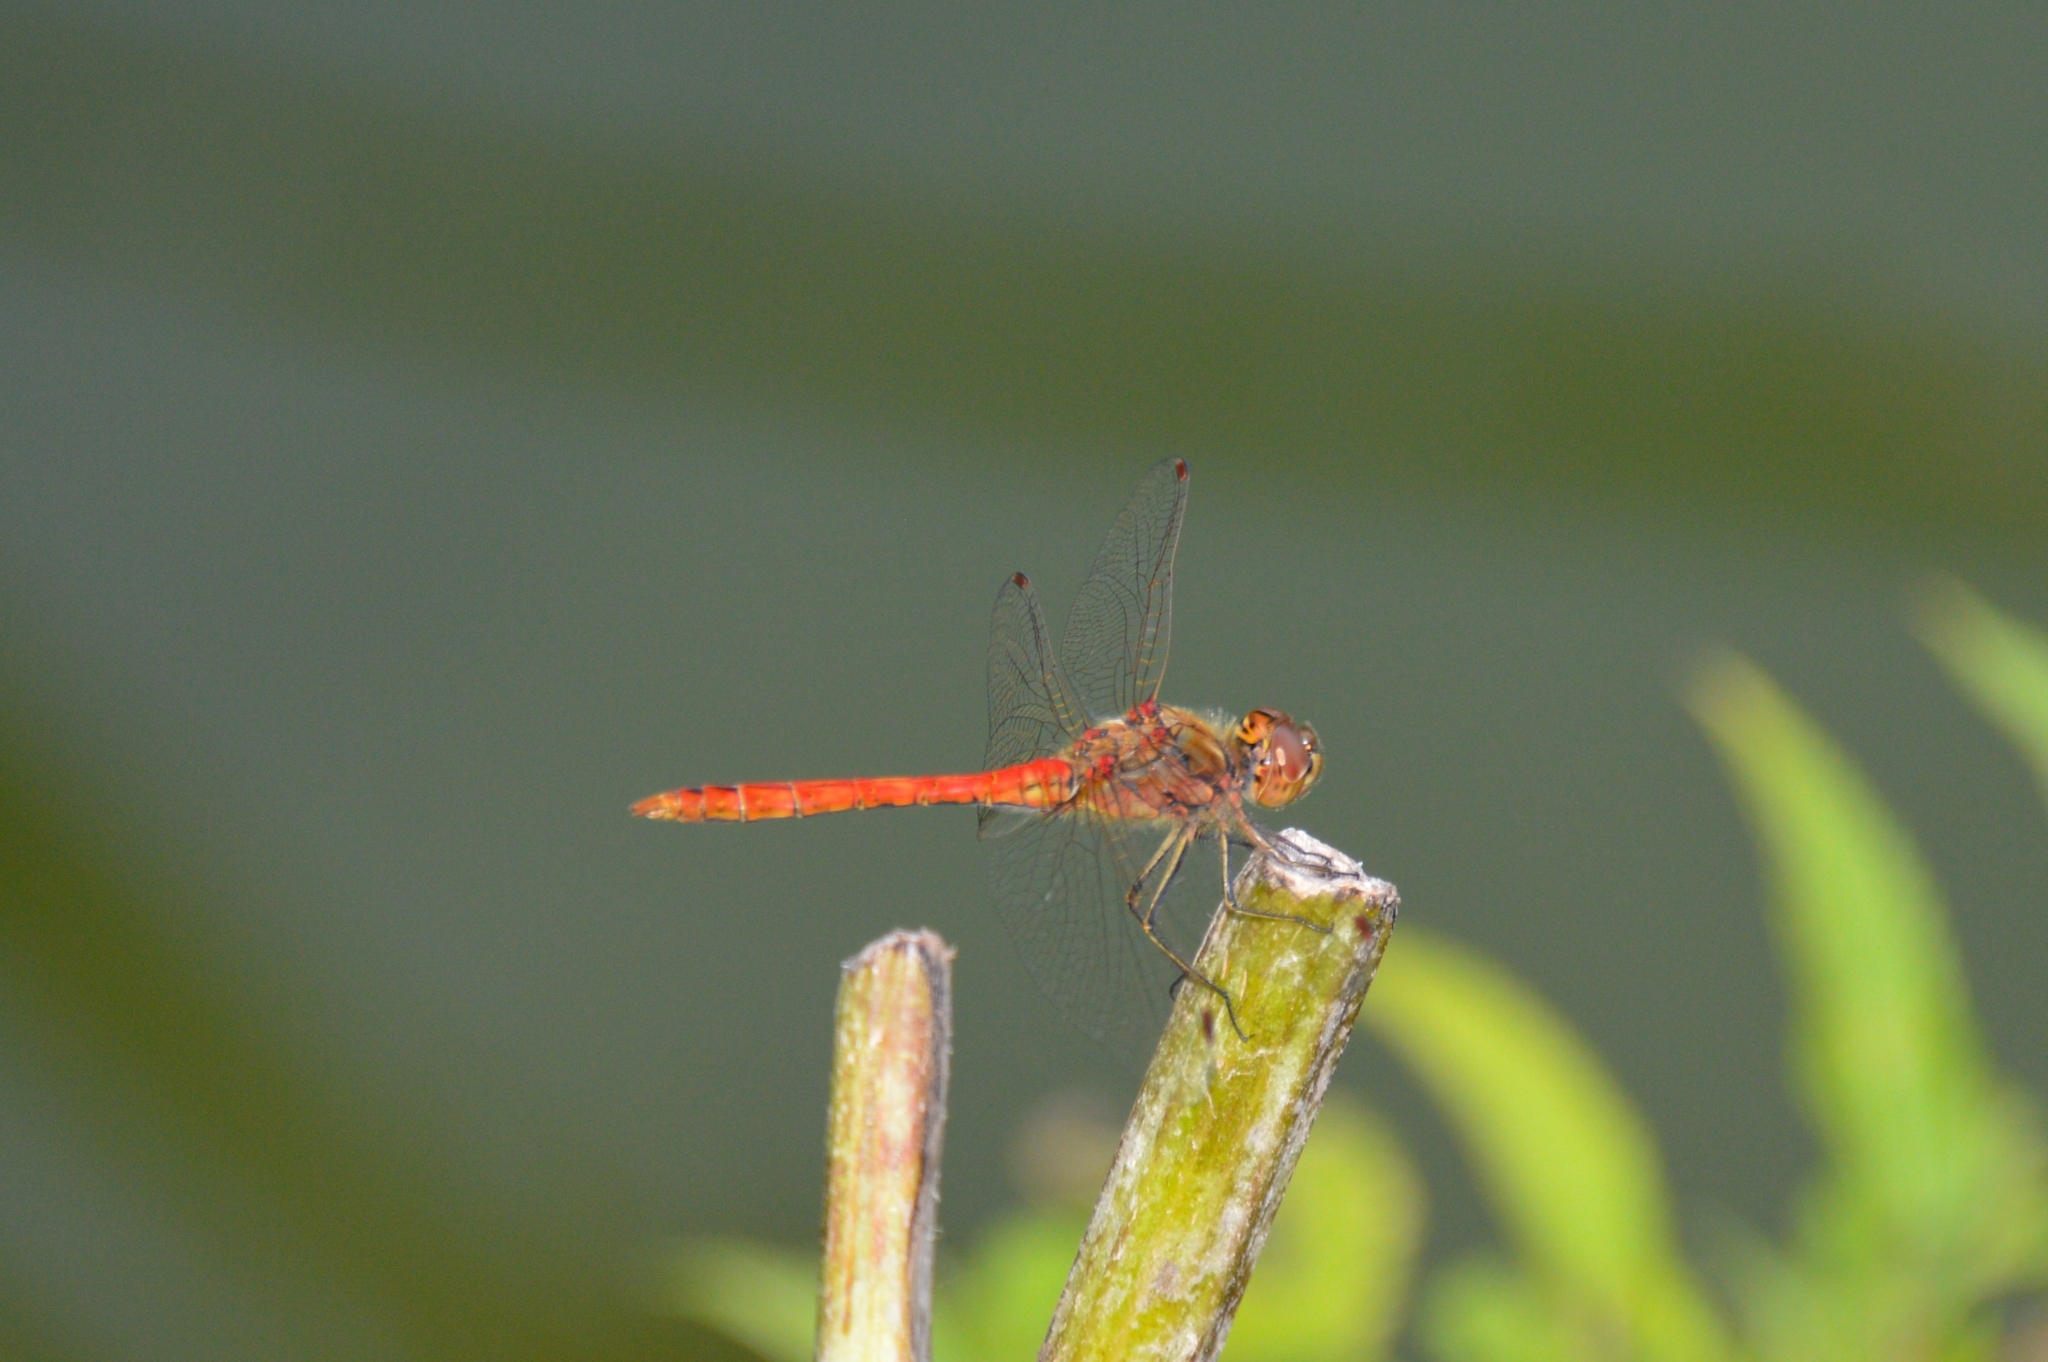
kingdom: Animalia
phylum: Arthropoda
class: Insecta
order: Odonata
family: Libellulidae
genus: Sympetrum
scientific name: Sympetrum vulgatum
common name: Vagrant darter
